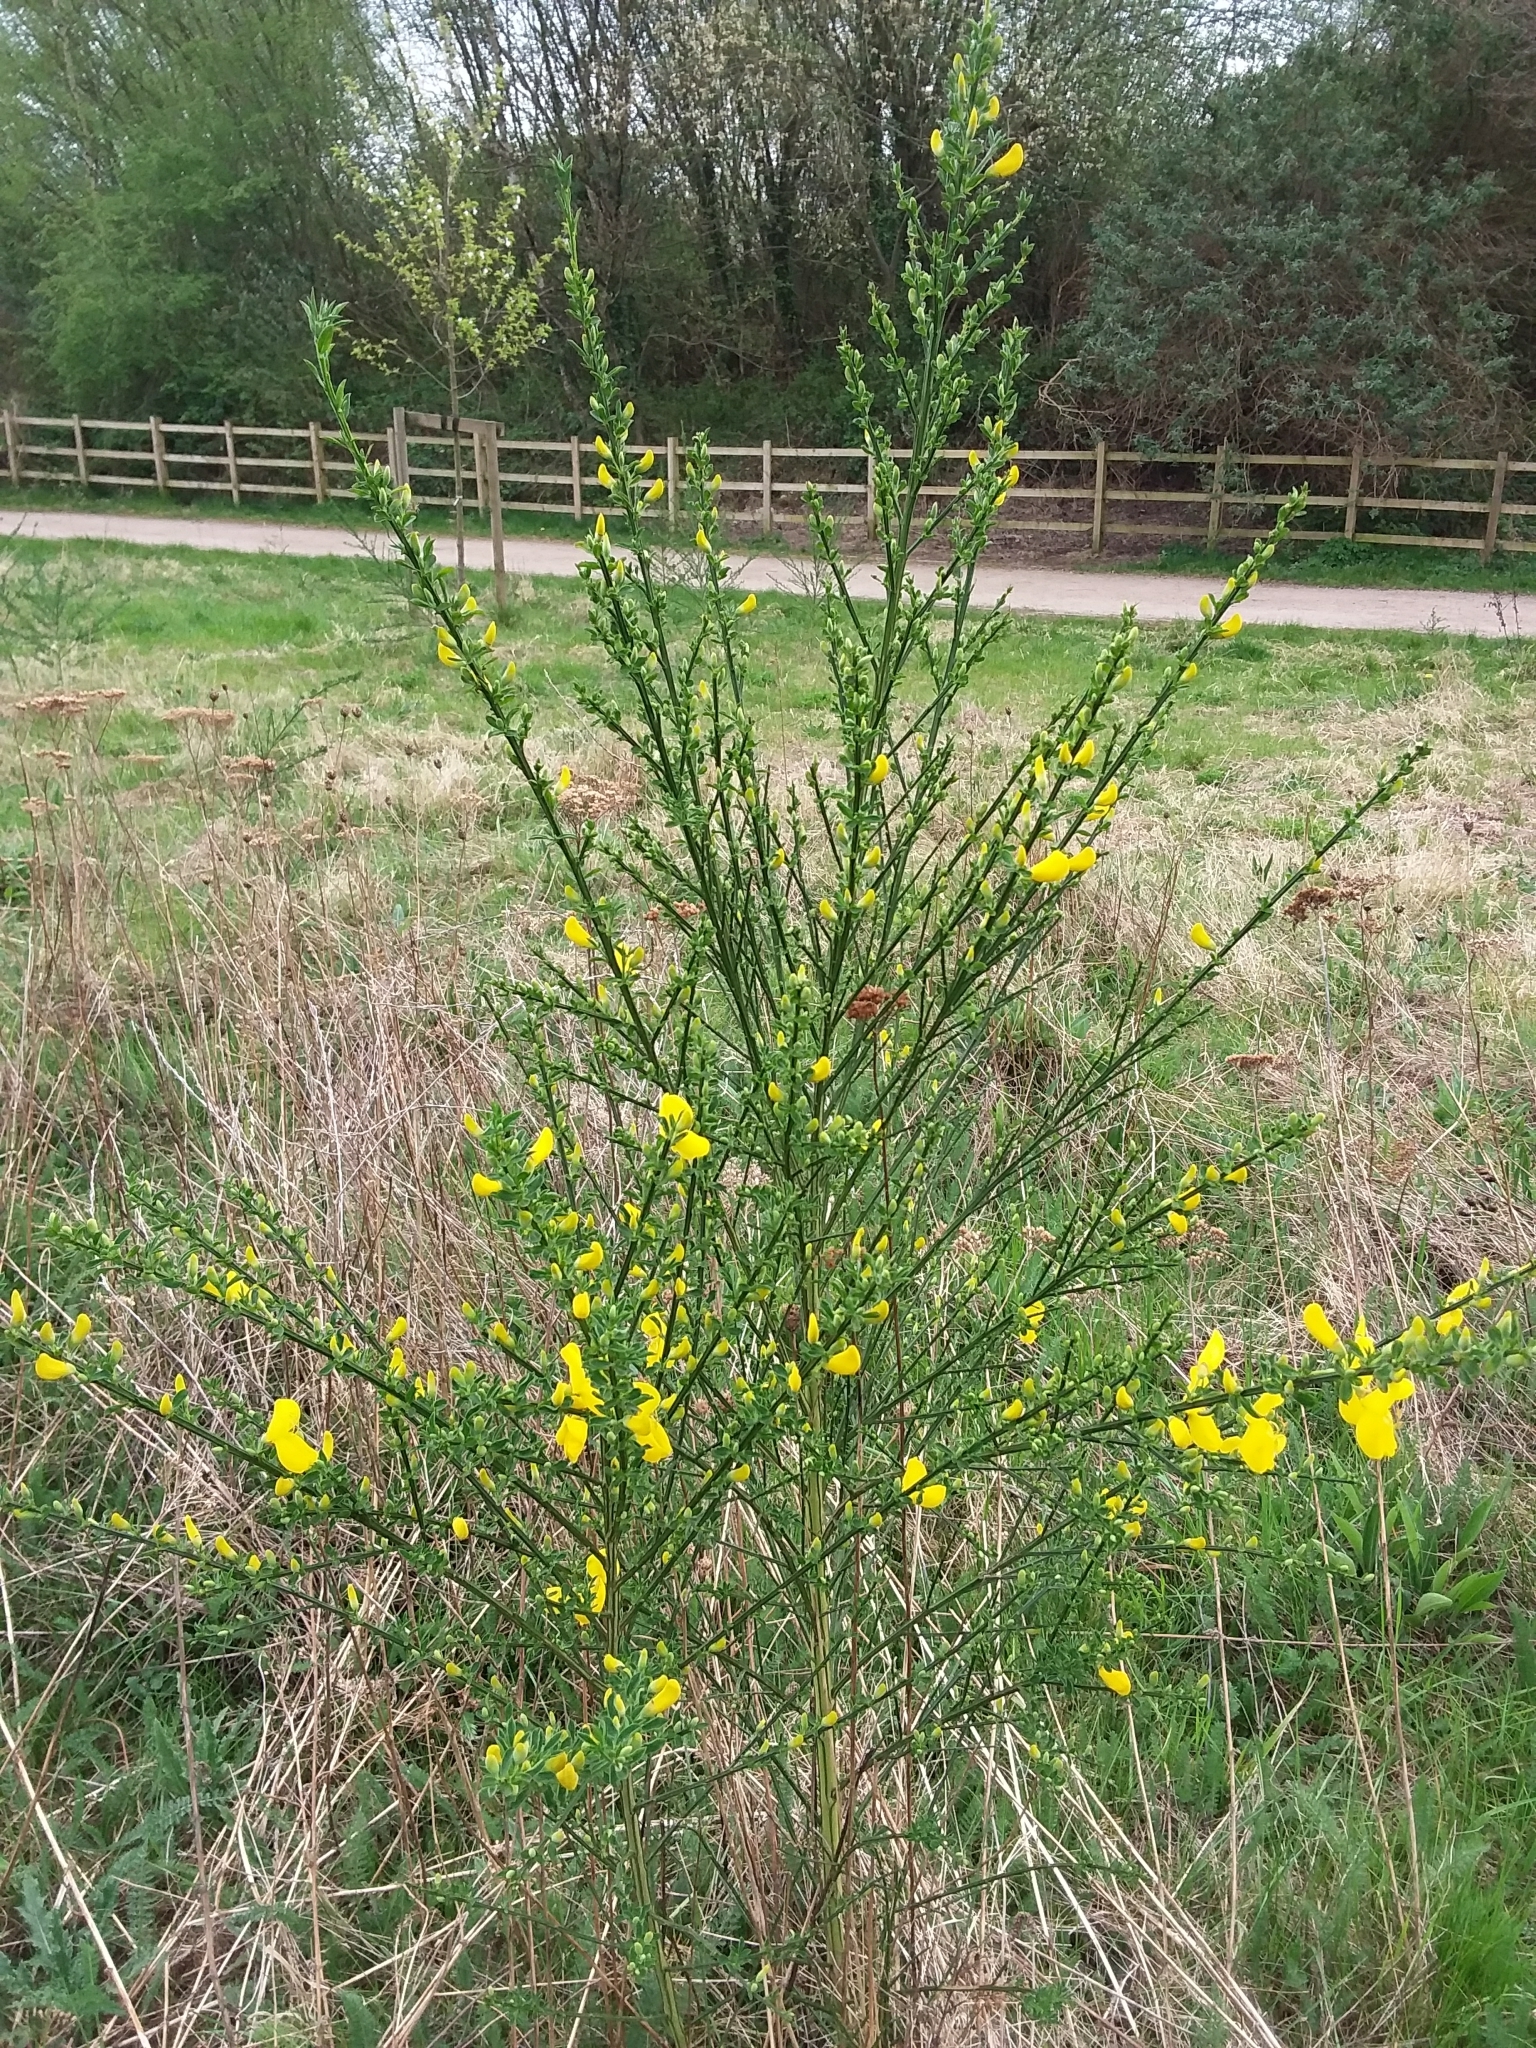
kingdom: Plantae
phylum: Tracheophyta
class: Magnoliopsida
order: Fabales
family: Fabaceae
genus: Cytisus
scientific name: Cytisus scoparius
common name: Scotch broom
